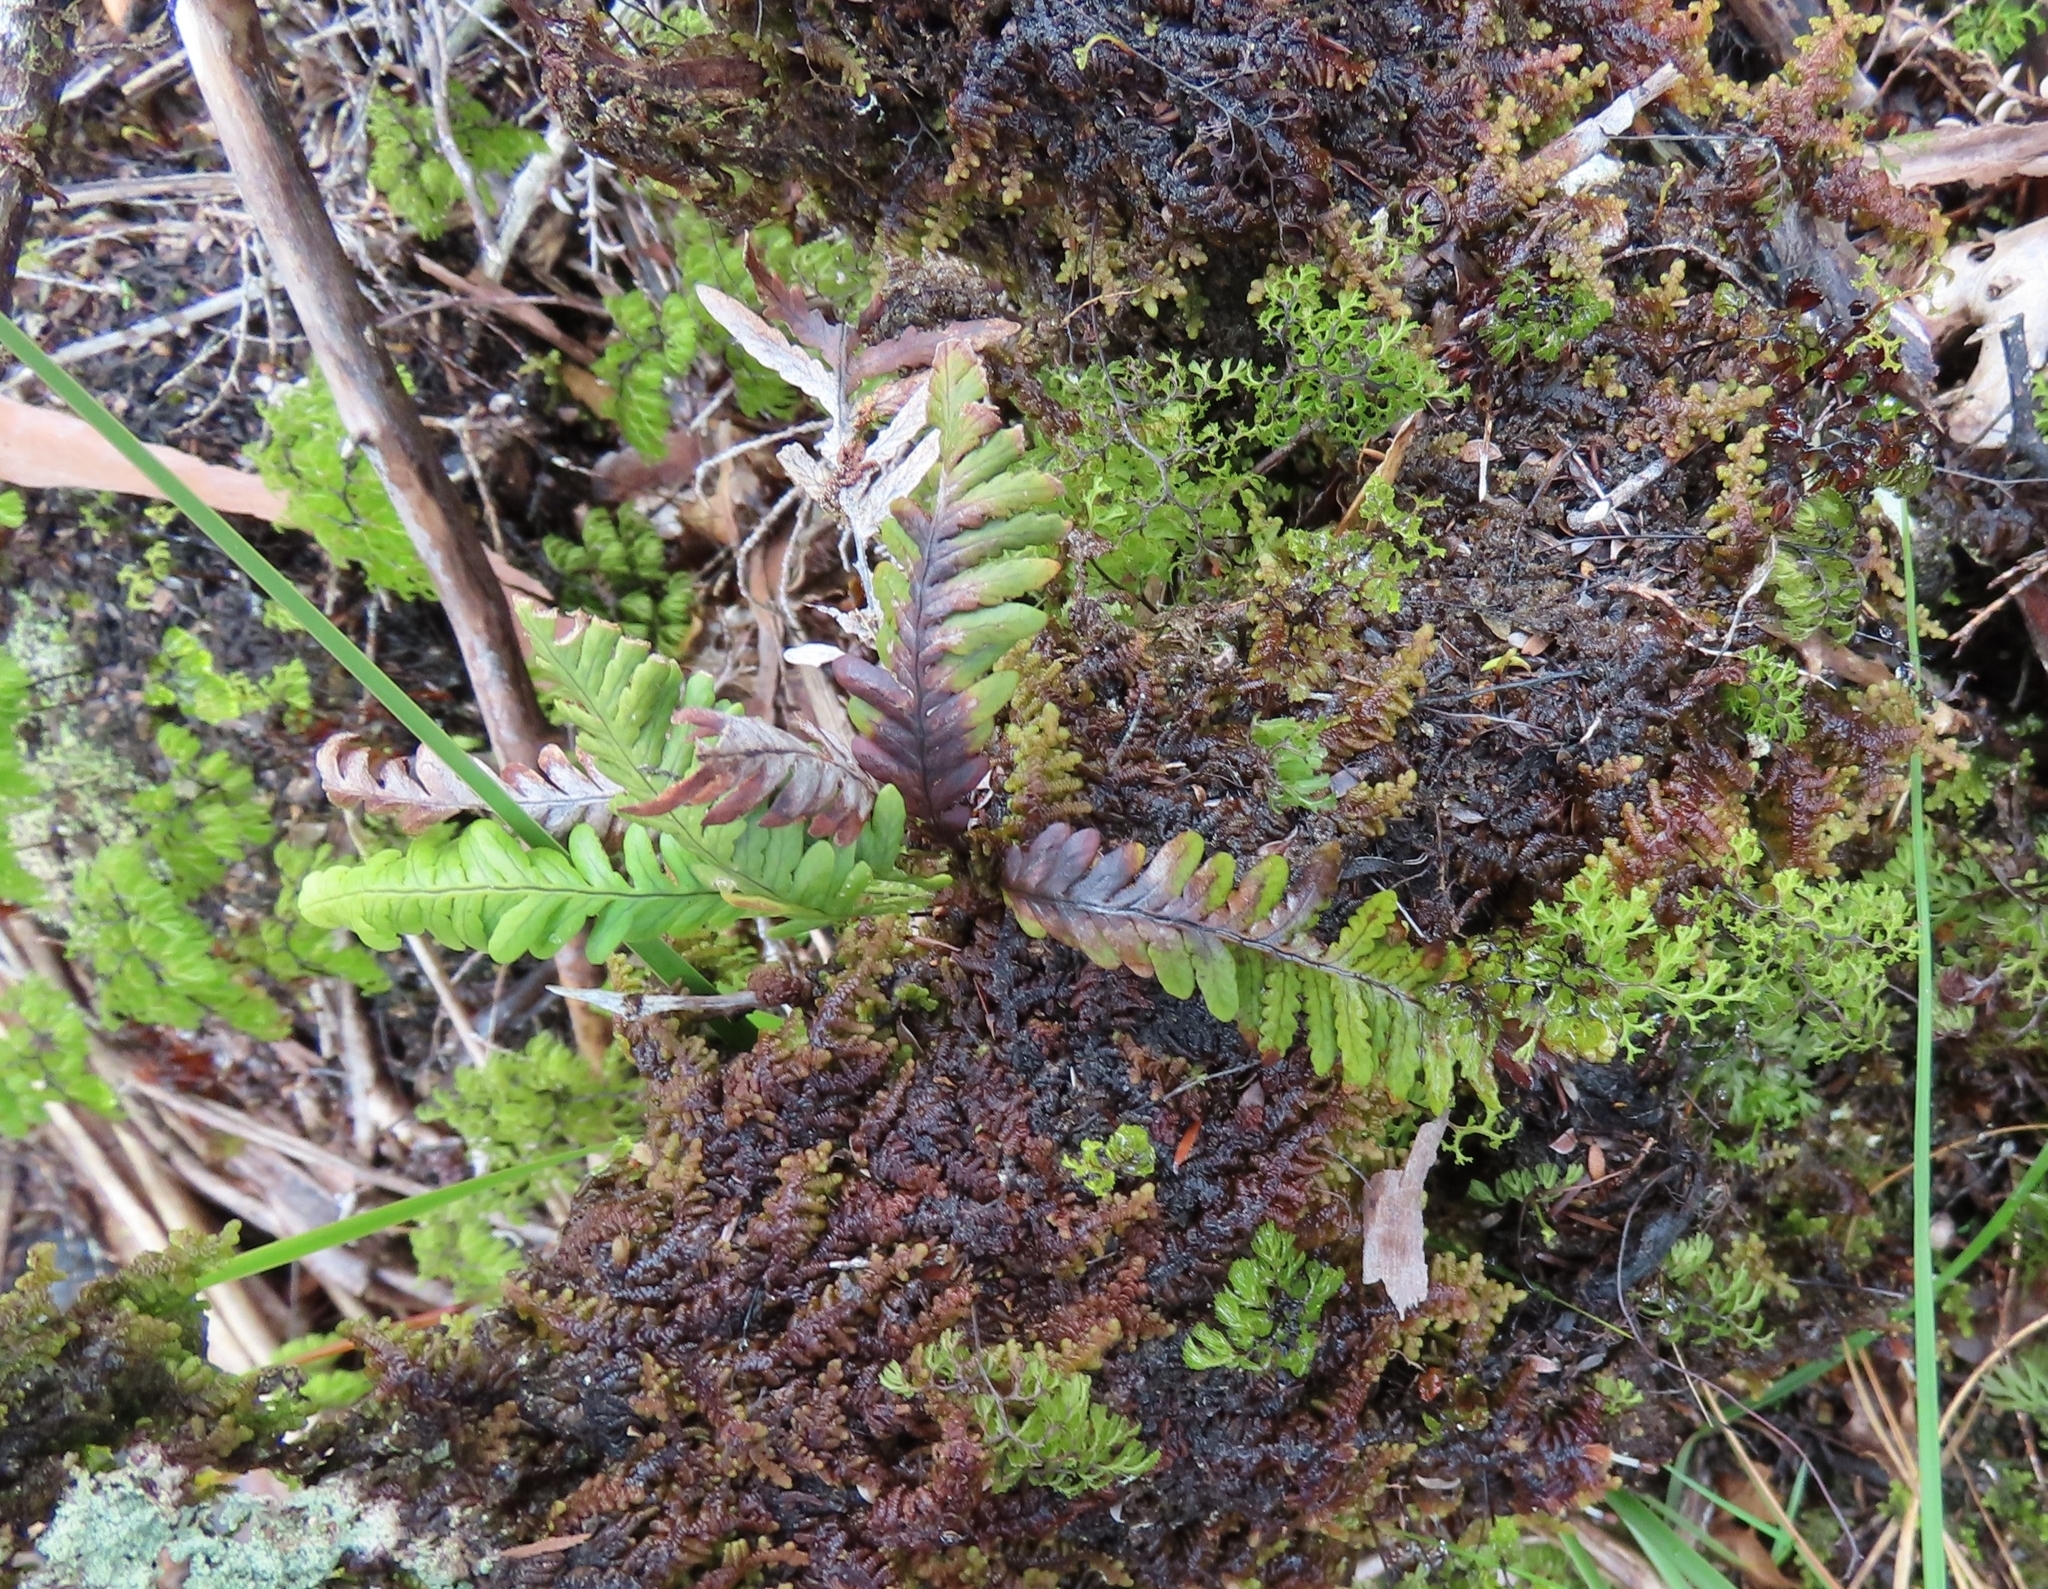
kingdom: Plantae
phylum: Tracheophyta
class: Polypodiopsida
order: Polypodiales
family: Polypodiaceae
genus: Notogrammitis
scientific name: Notogrammitis heterophylla
